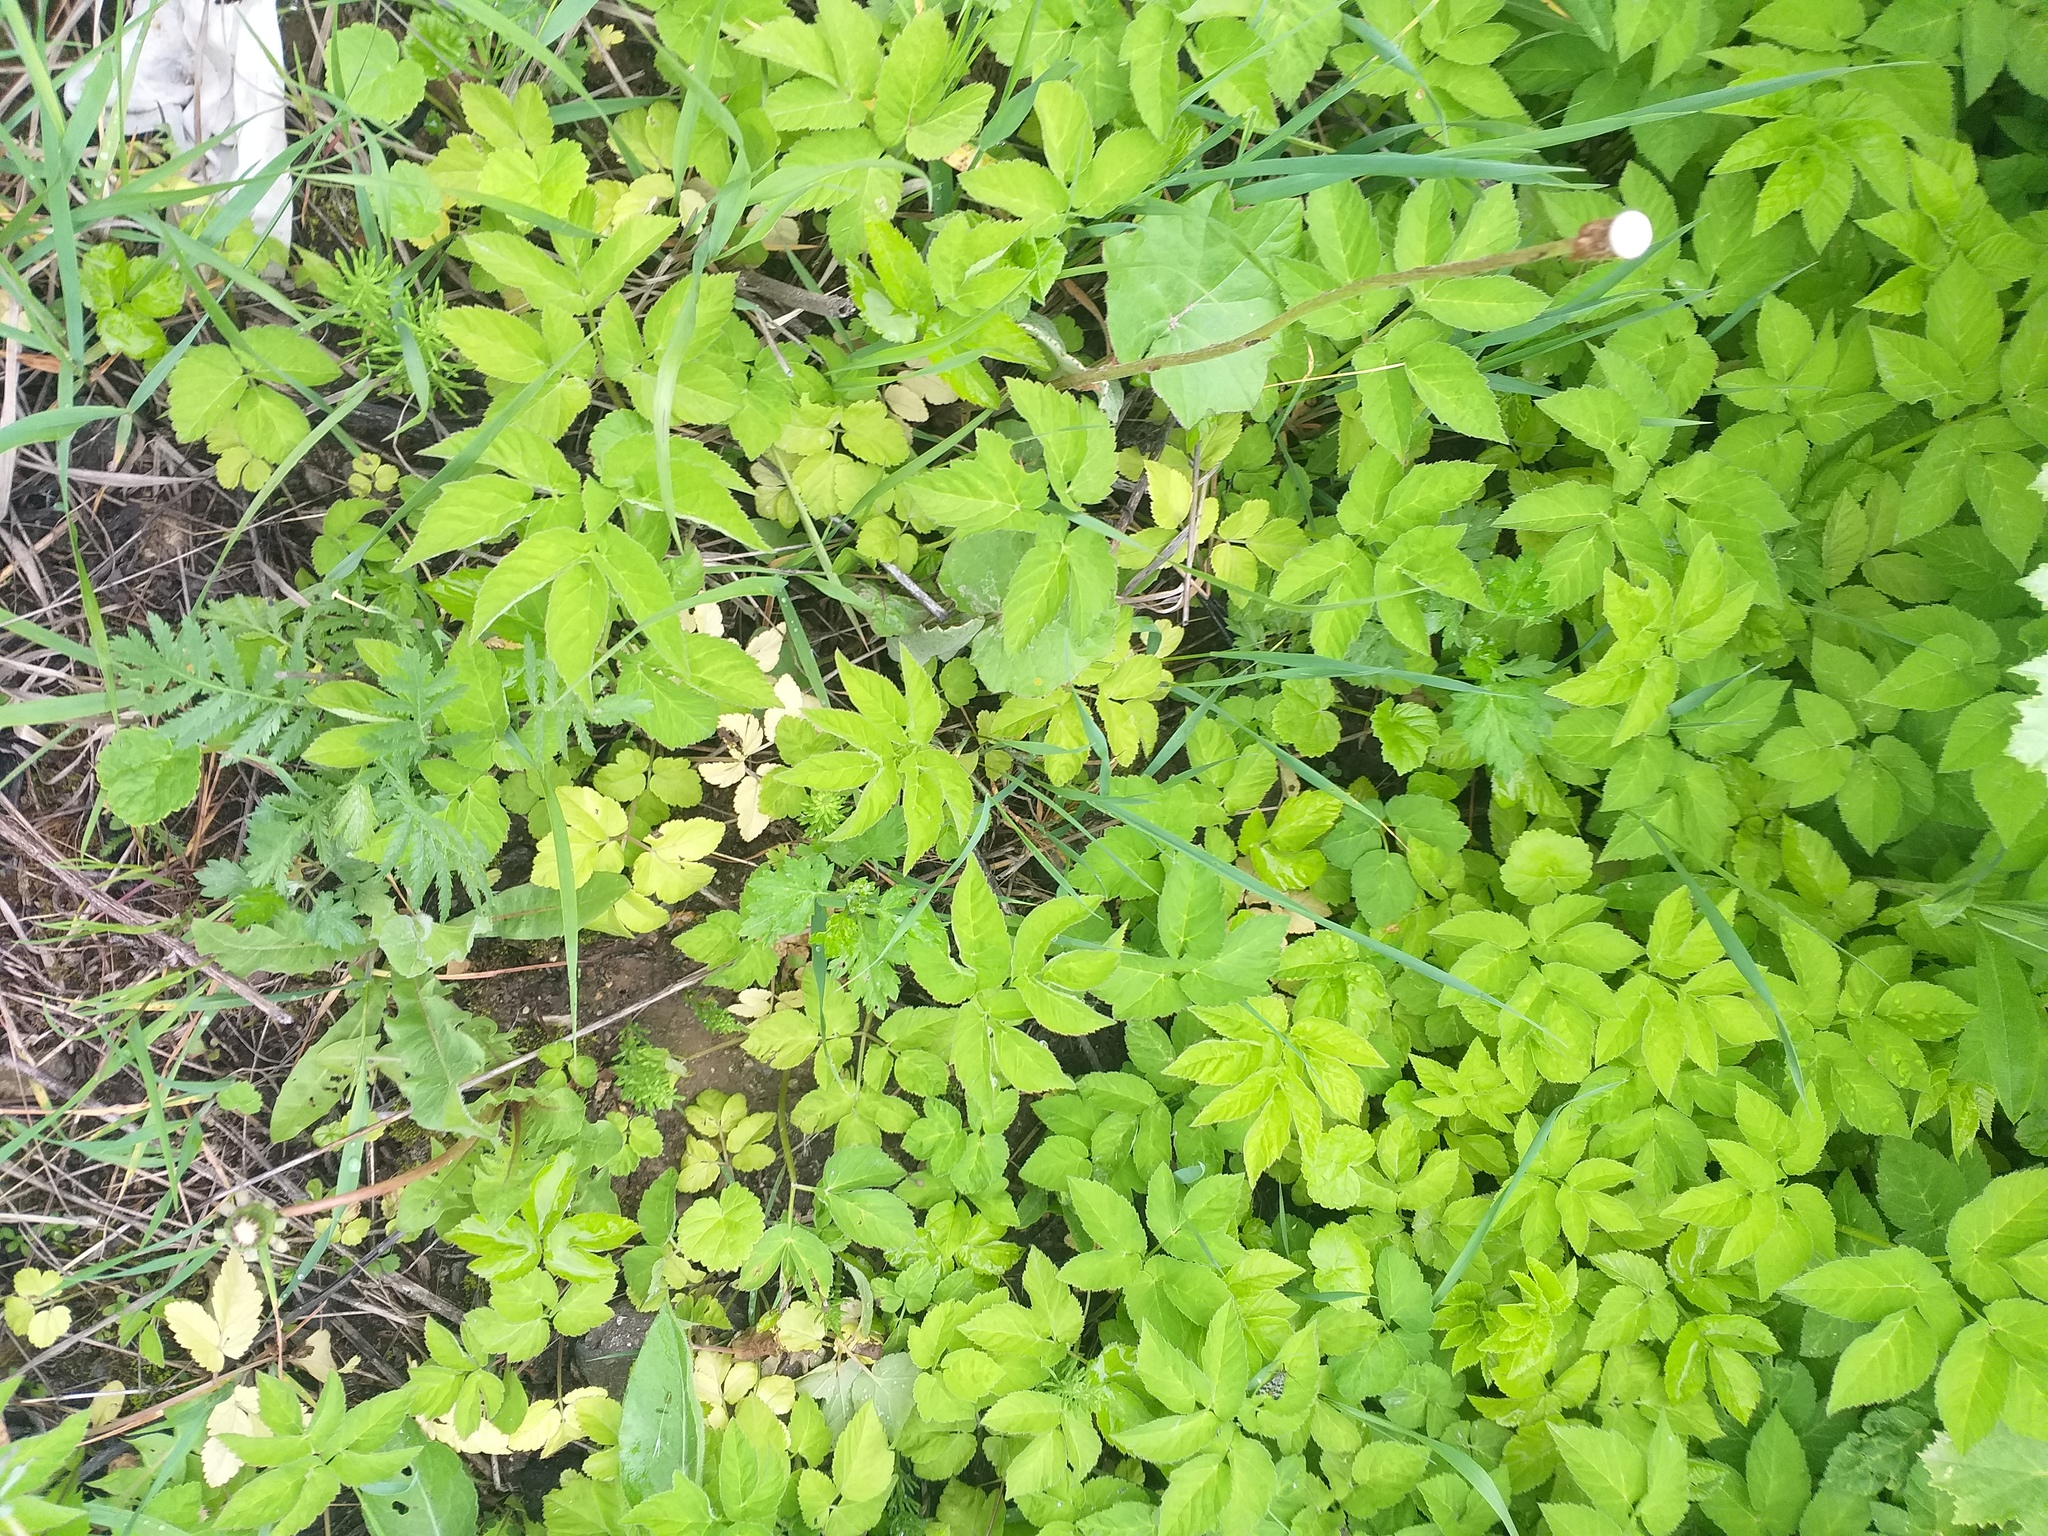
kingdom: Plantae
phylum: Tracheophyta
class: Magnoliopsida
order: Apiales
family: Apiaceae
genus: Aegopodium
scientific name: Aegopodium podagraria
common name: Ground-elder
